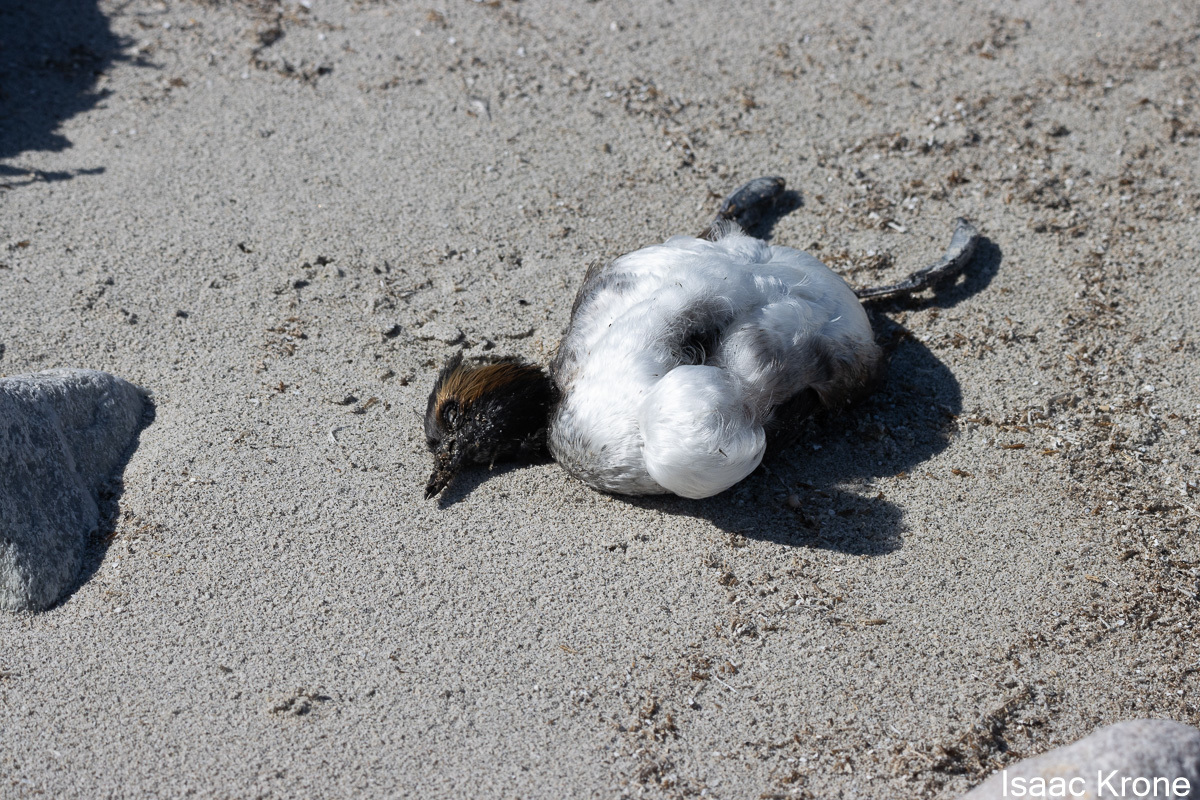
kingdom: Animalia
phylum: Chordata
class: Aves
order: Podicipediformes
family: Podicipedidae
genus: Podiceps
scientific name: Podiceps nigricollis
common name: Black-necked grebe
